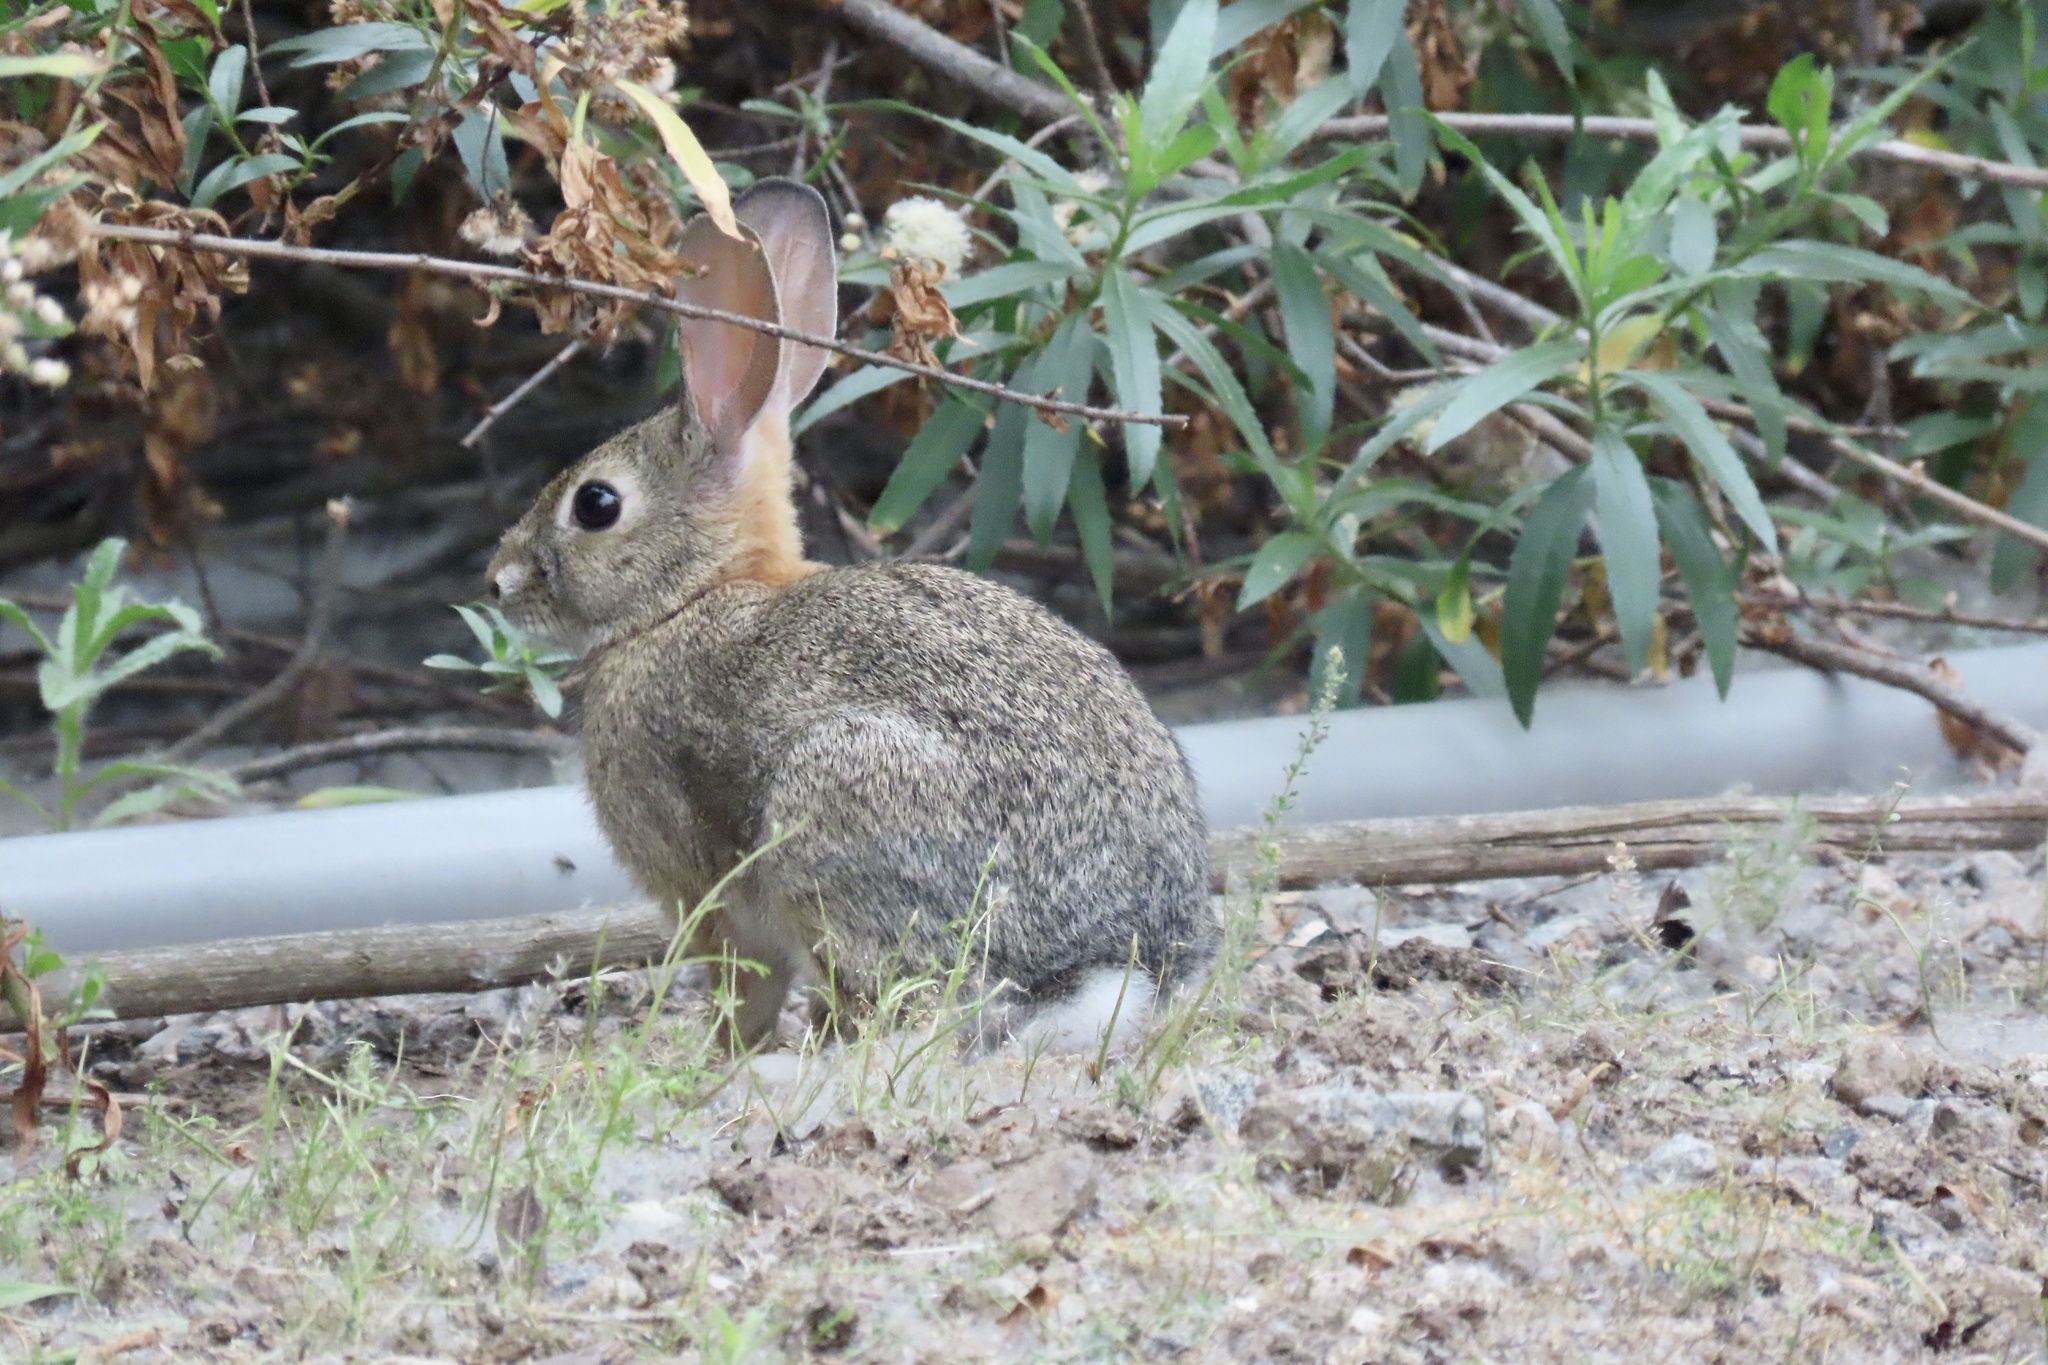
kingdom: Animalia
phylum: Chordata
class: Mammalia
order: Lagomorpha
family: Leporidae
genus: Sylvilagus
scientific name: Sylvilagus audubonii
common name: Desert cottontail
